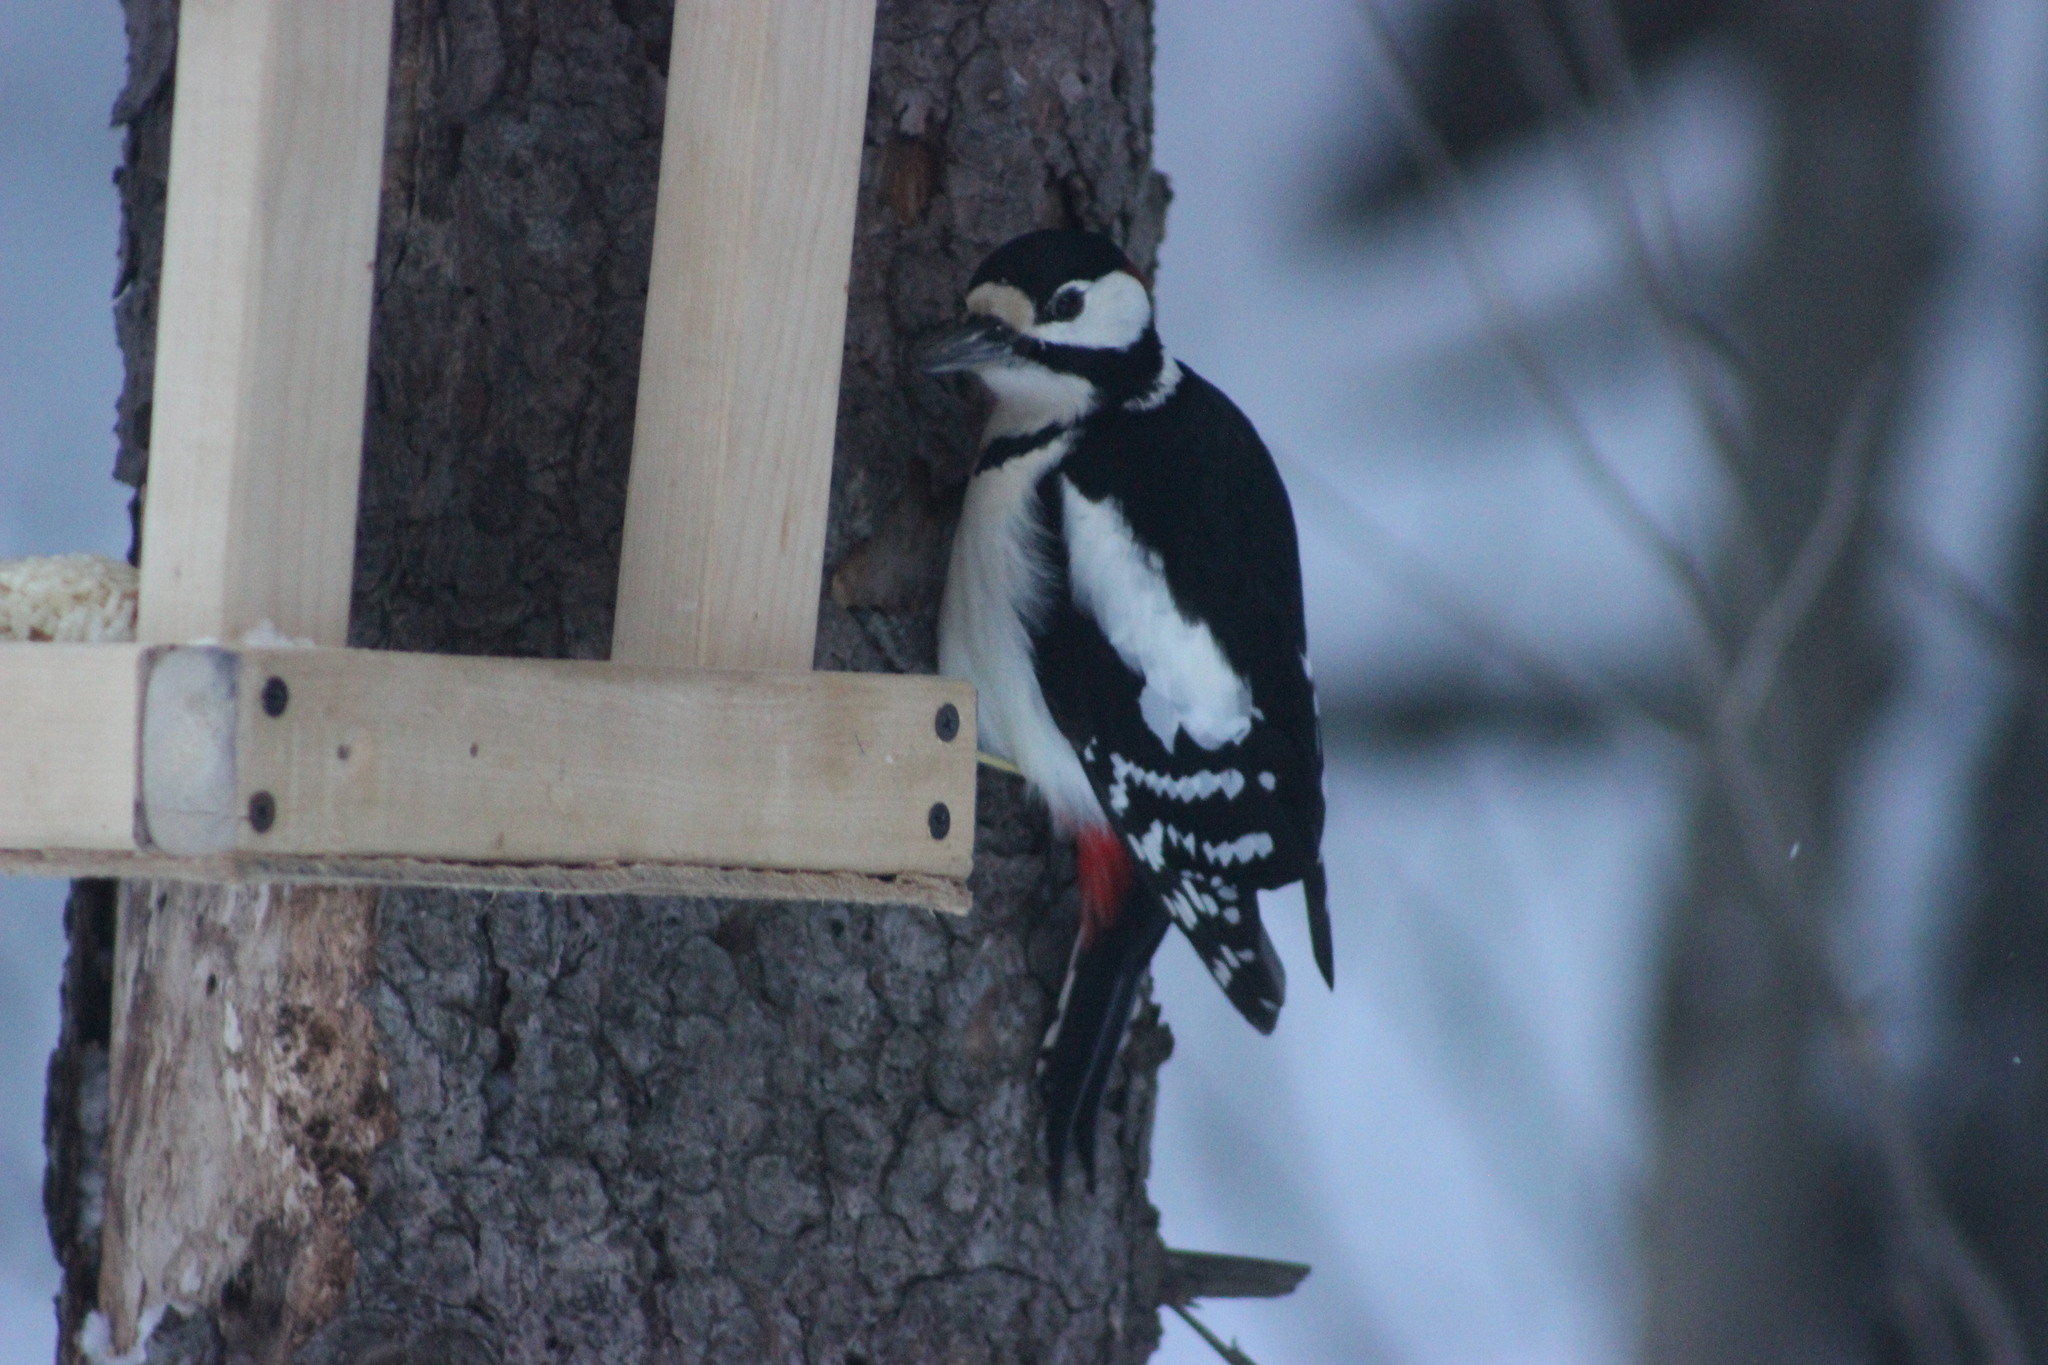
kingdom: Animalia
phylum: Chordata
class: Aves
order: Piciformes
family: Picidae
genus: Dendrocopos
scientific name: Dendrocopos major
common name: Great spotted woodpecker
